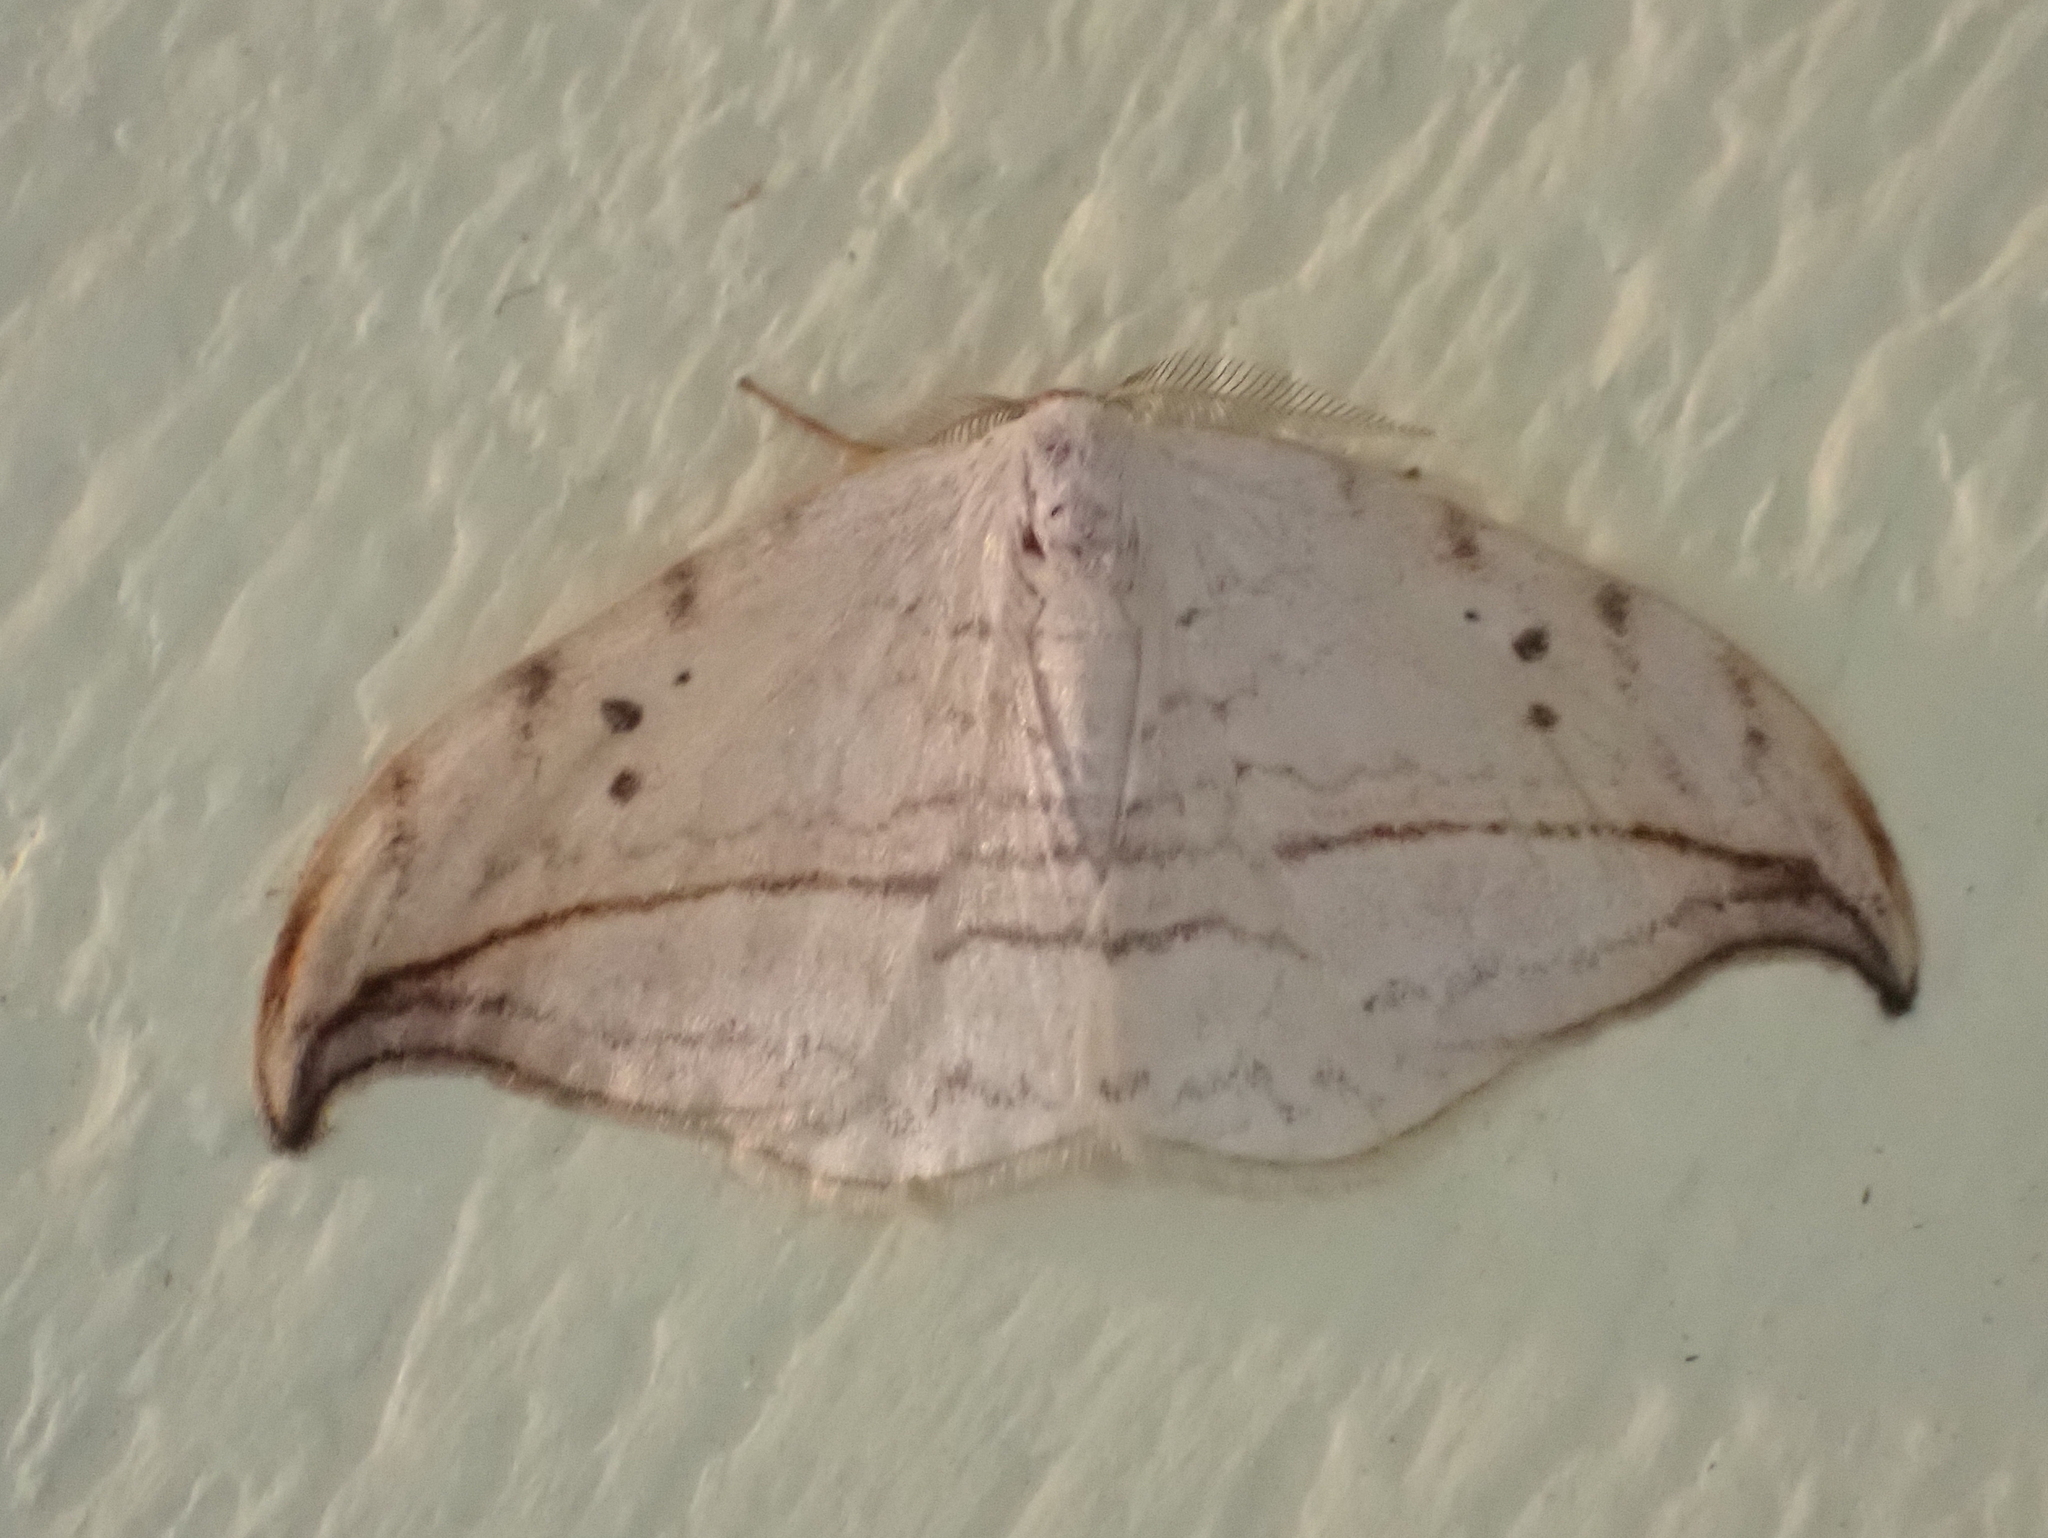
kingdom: Animalia
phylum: Arthropoda
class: Insecta
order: Lepidoptera
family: Drepanidae
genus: Drepana
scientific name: Drepana arcuata
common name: Arched hooktip moth
